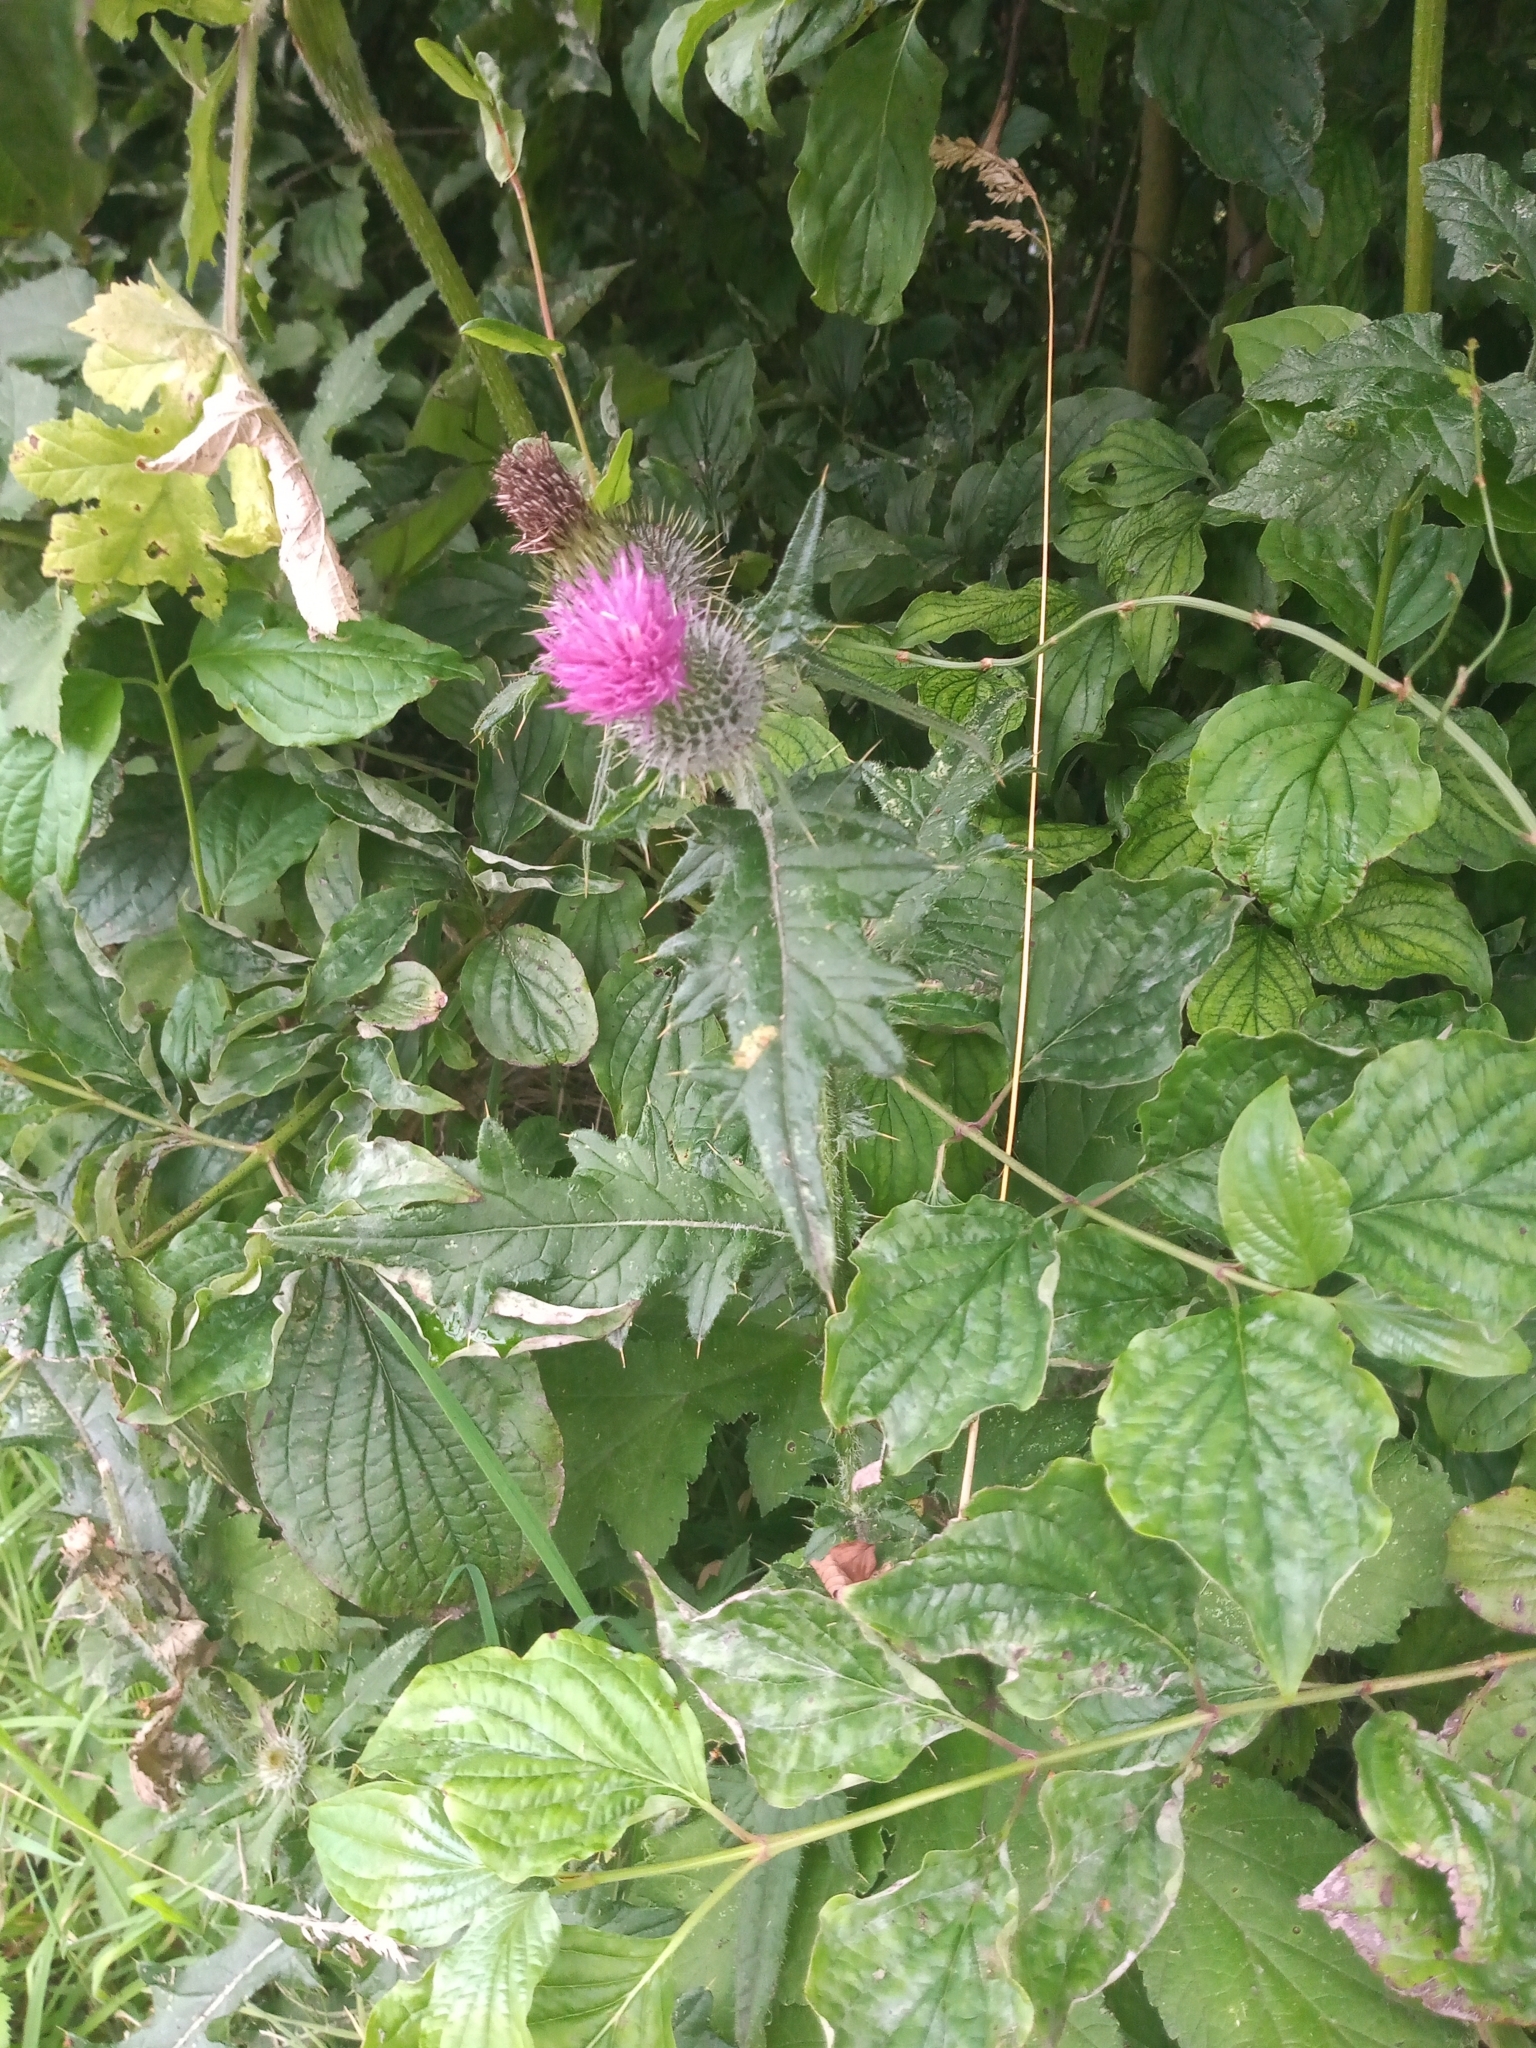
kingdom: Plantae
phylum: Tracheophyta
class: Magnoliopsida
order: Asterales
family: Asteraceae
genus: Cirsium
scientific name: Cirsium vulgare
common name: Bull thistle
